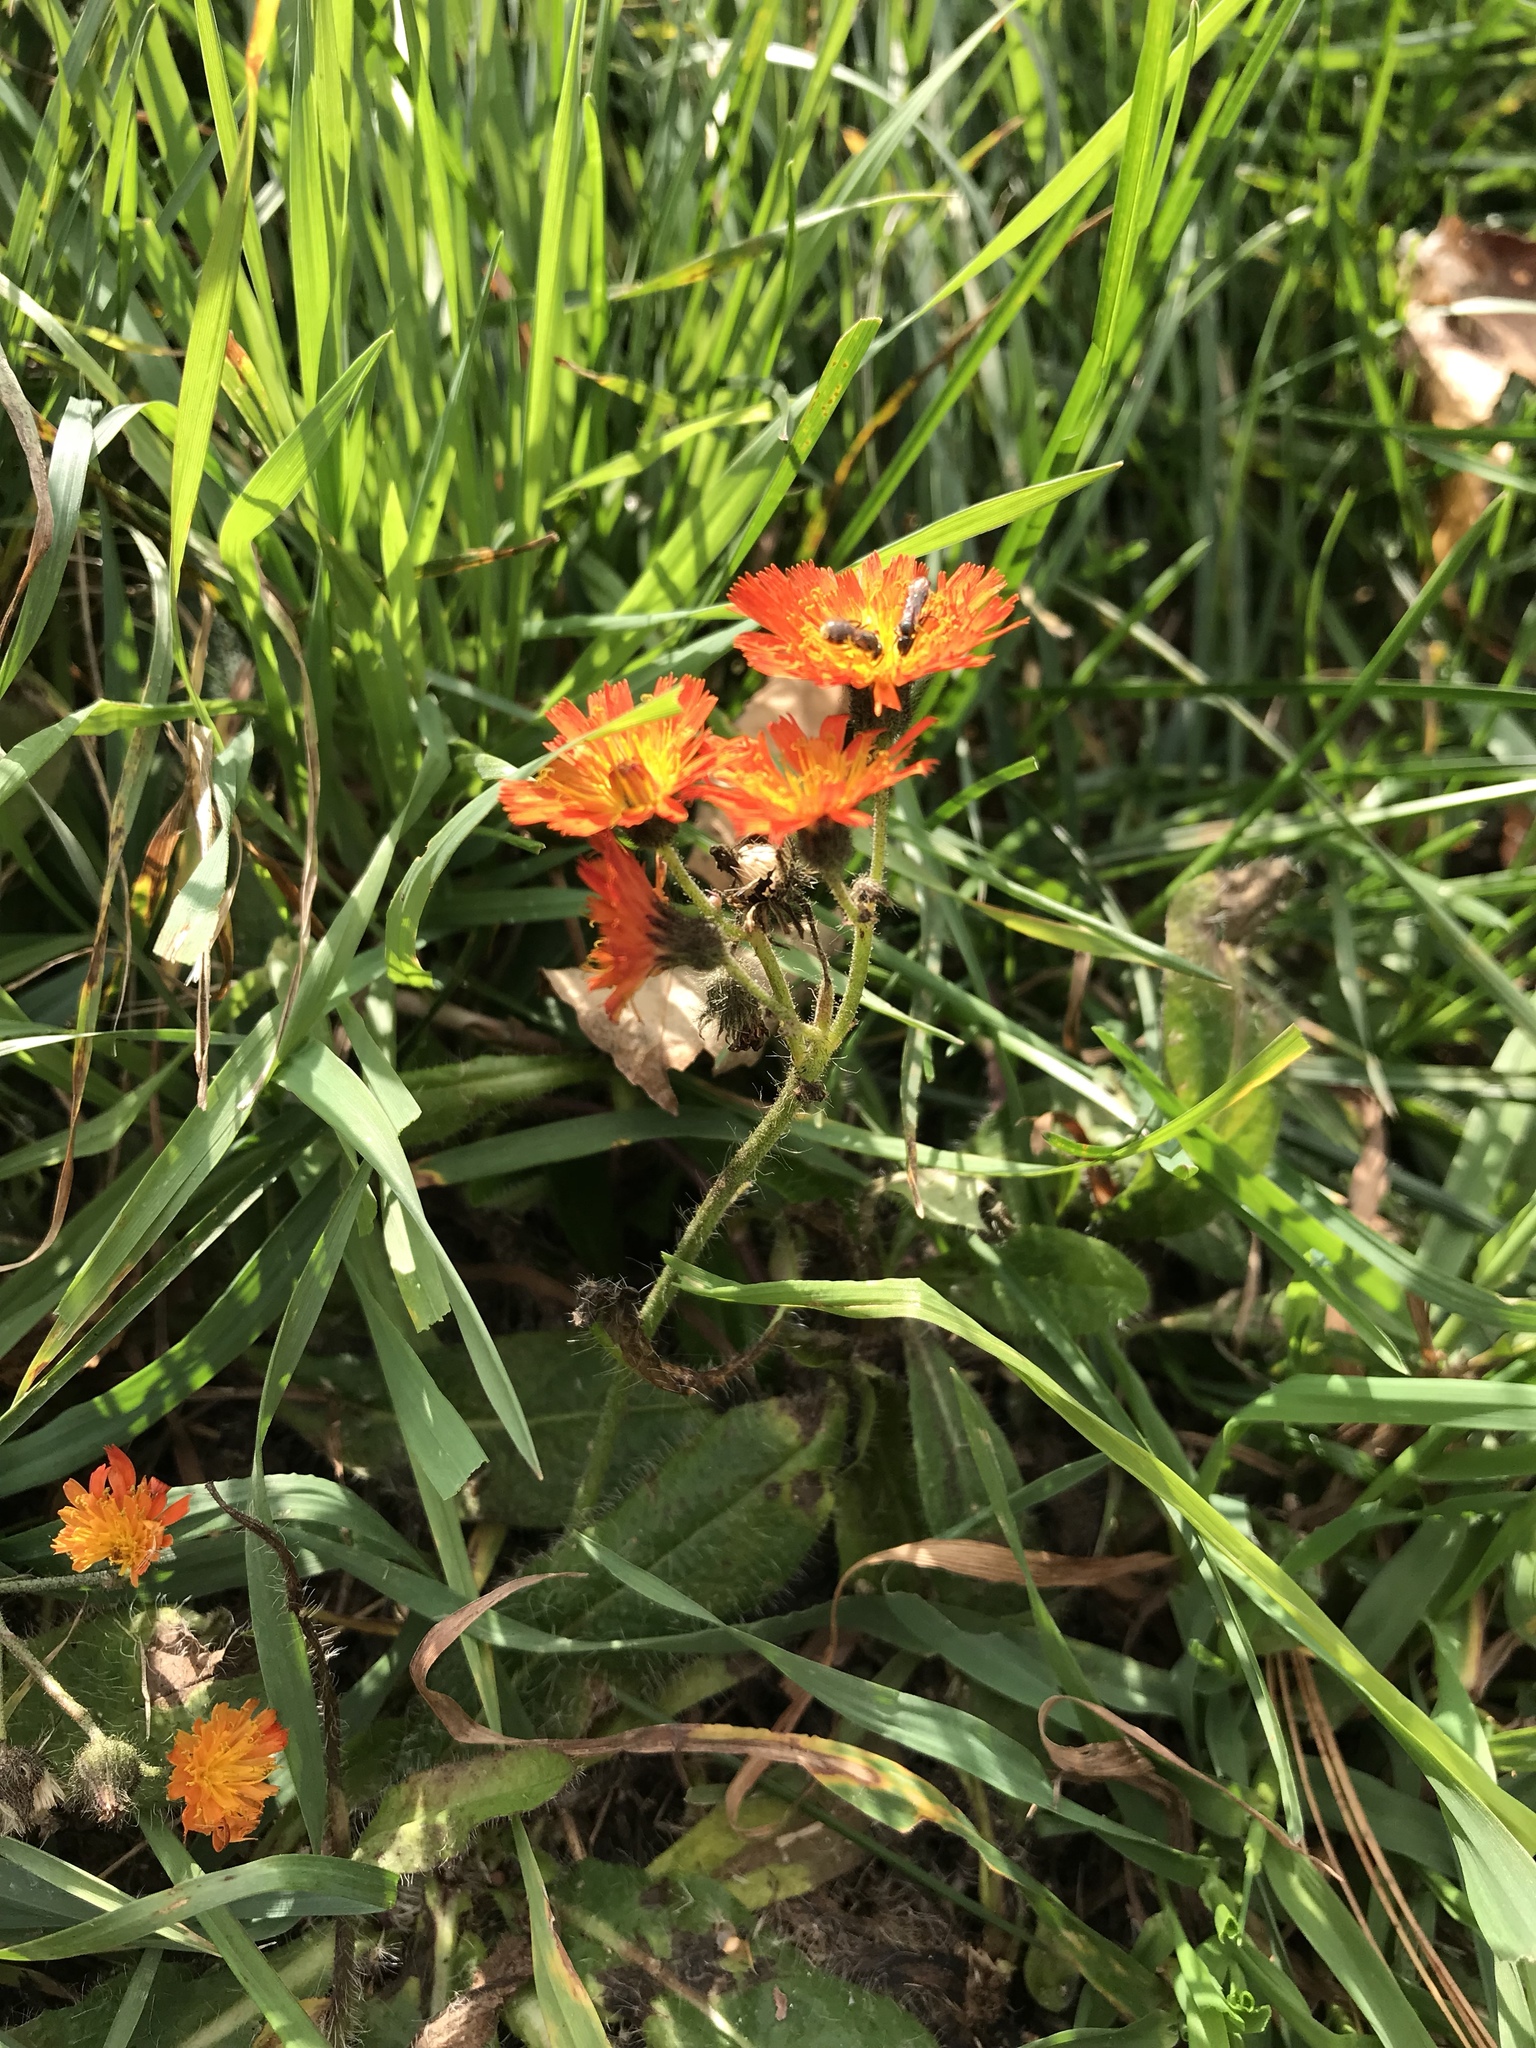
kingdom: Plantae
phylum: Tracheophyta
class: Magnoliopsida
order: Asterales
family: Asteraceae
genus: Pilosella
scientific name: Pilosella aurantiaca
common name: Fox-and-cubs
